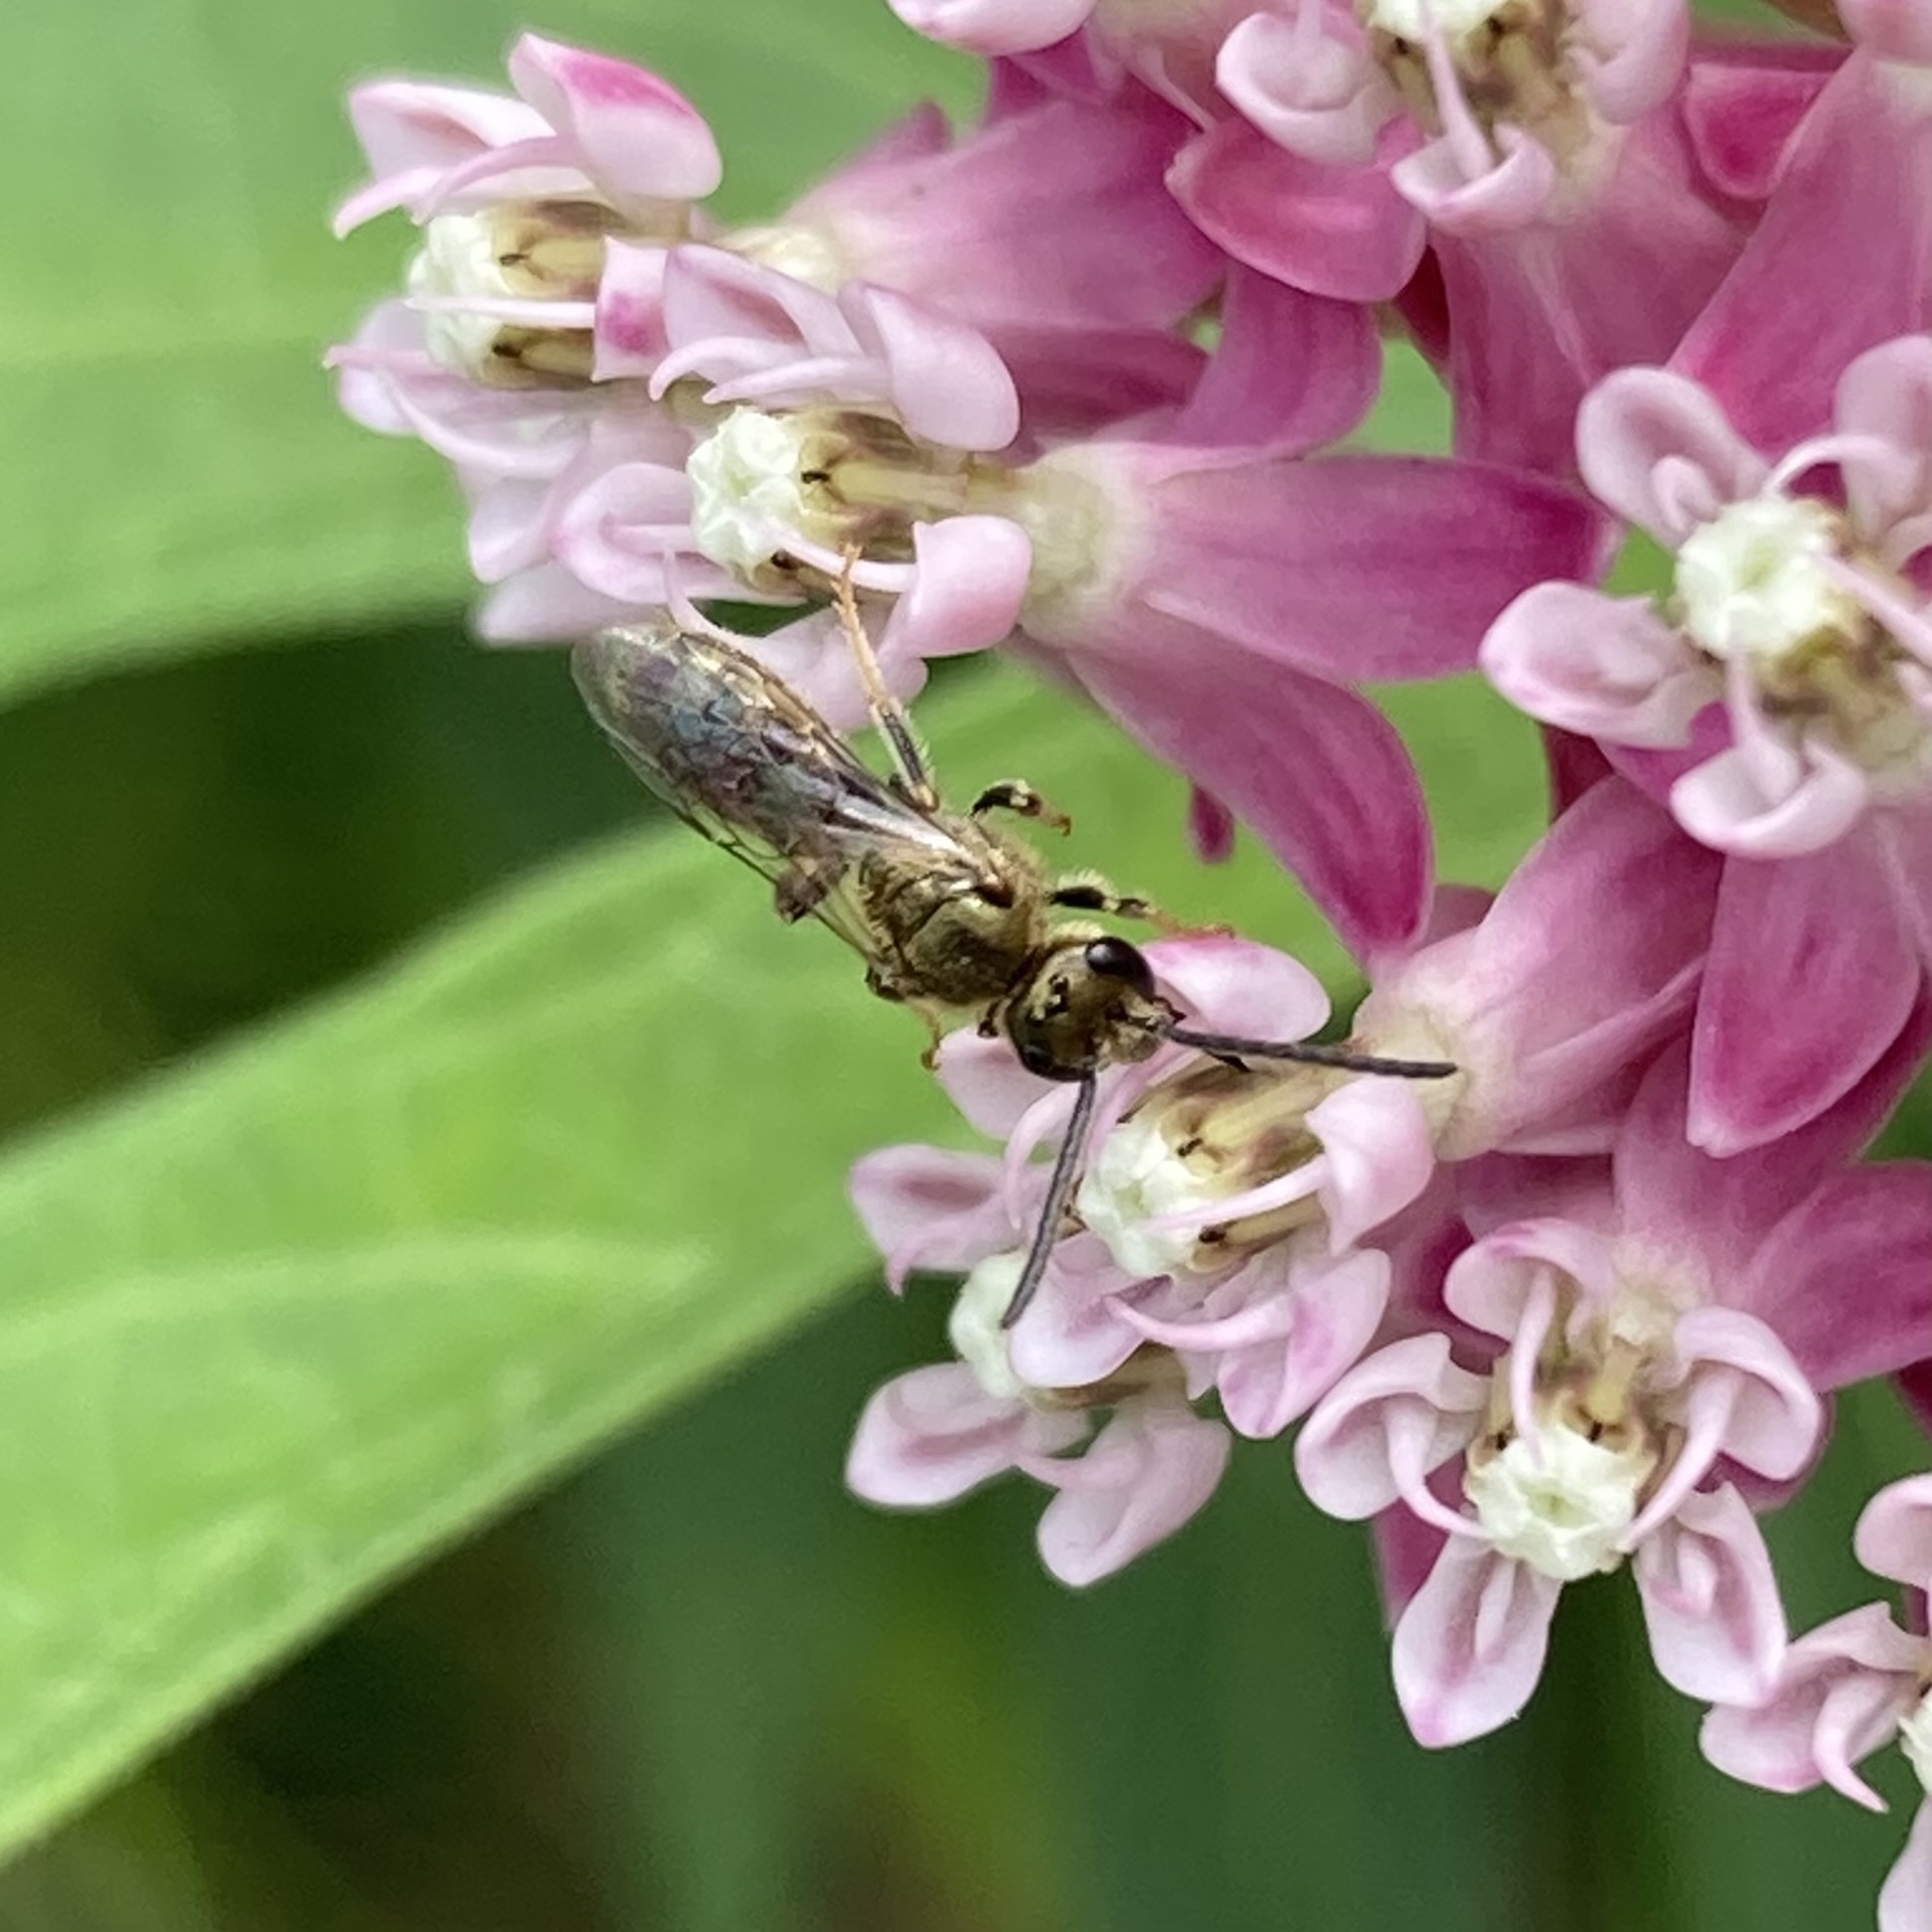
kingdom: Animalia
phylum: Arthropoda
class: Insecta
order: Hymenoptera
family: Halictidae
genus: Dialictus
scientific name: Dialictus
